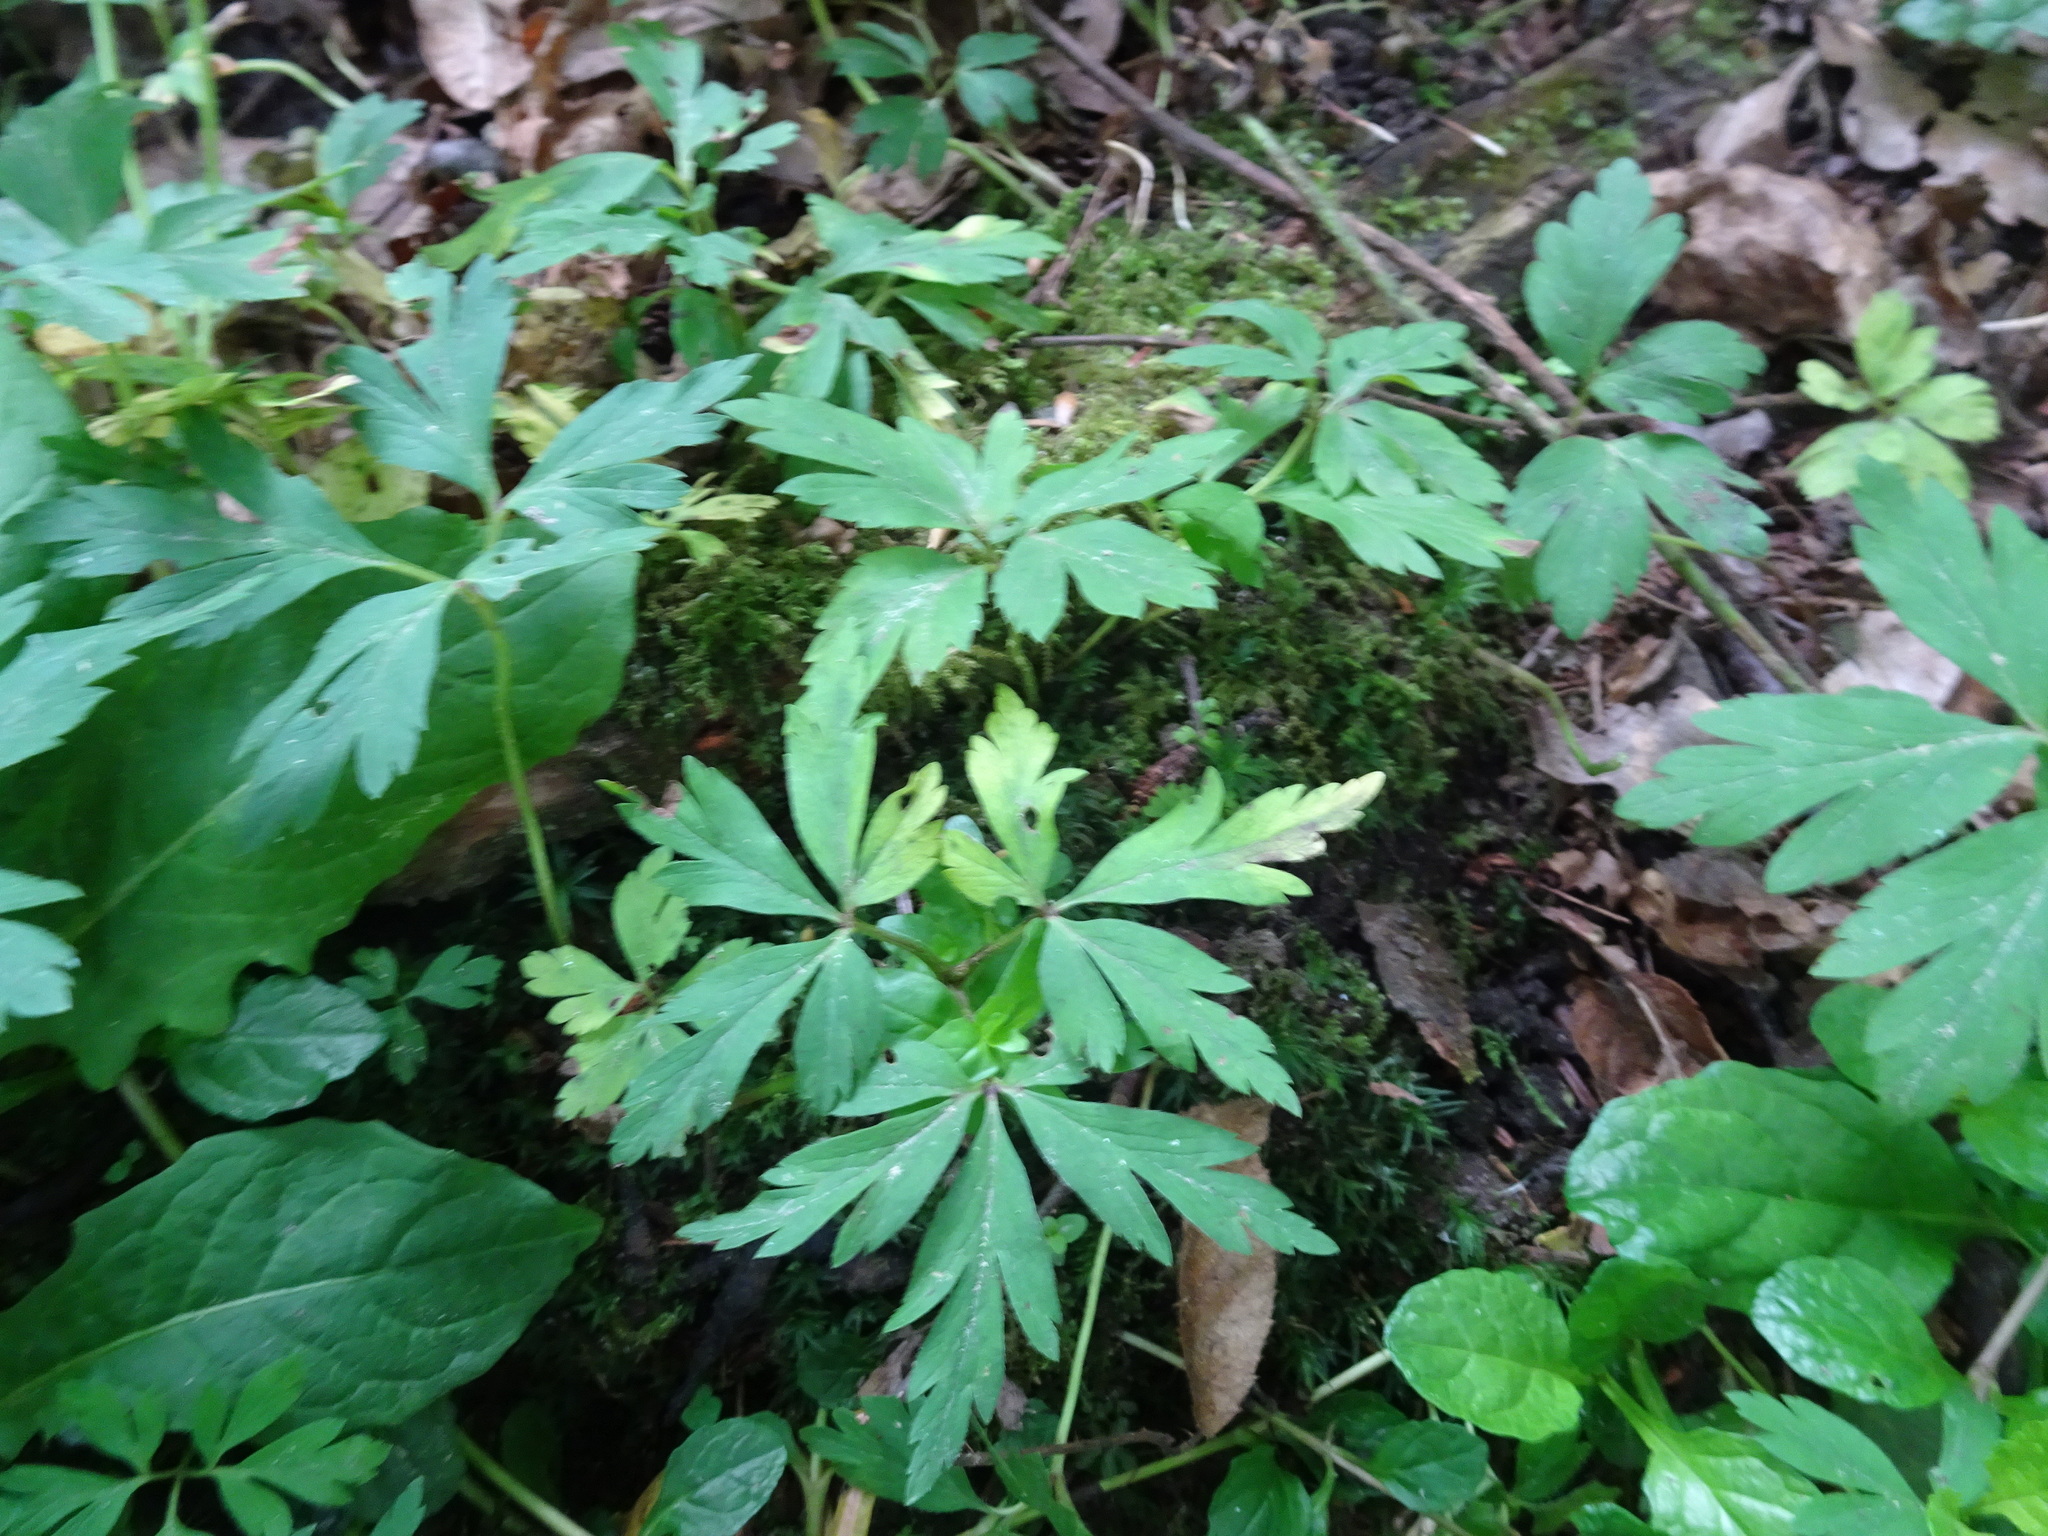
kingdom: Plantae
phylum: Tracheophyta
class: Magnoliopsida
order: Ranunculales
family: Ranunculaceae
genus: Anemone
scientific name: Anemone nemorosa
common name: Wood anemone
